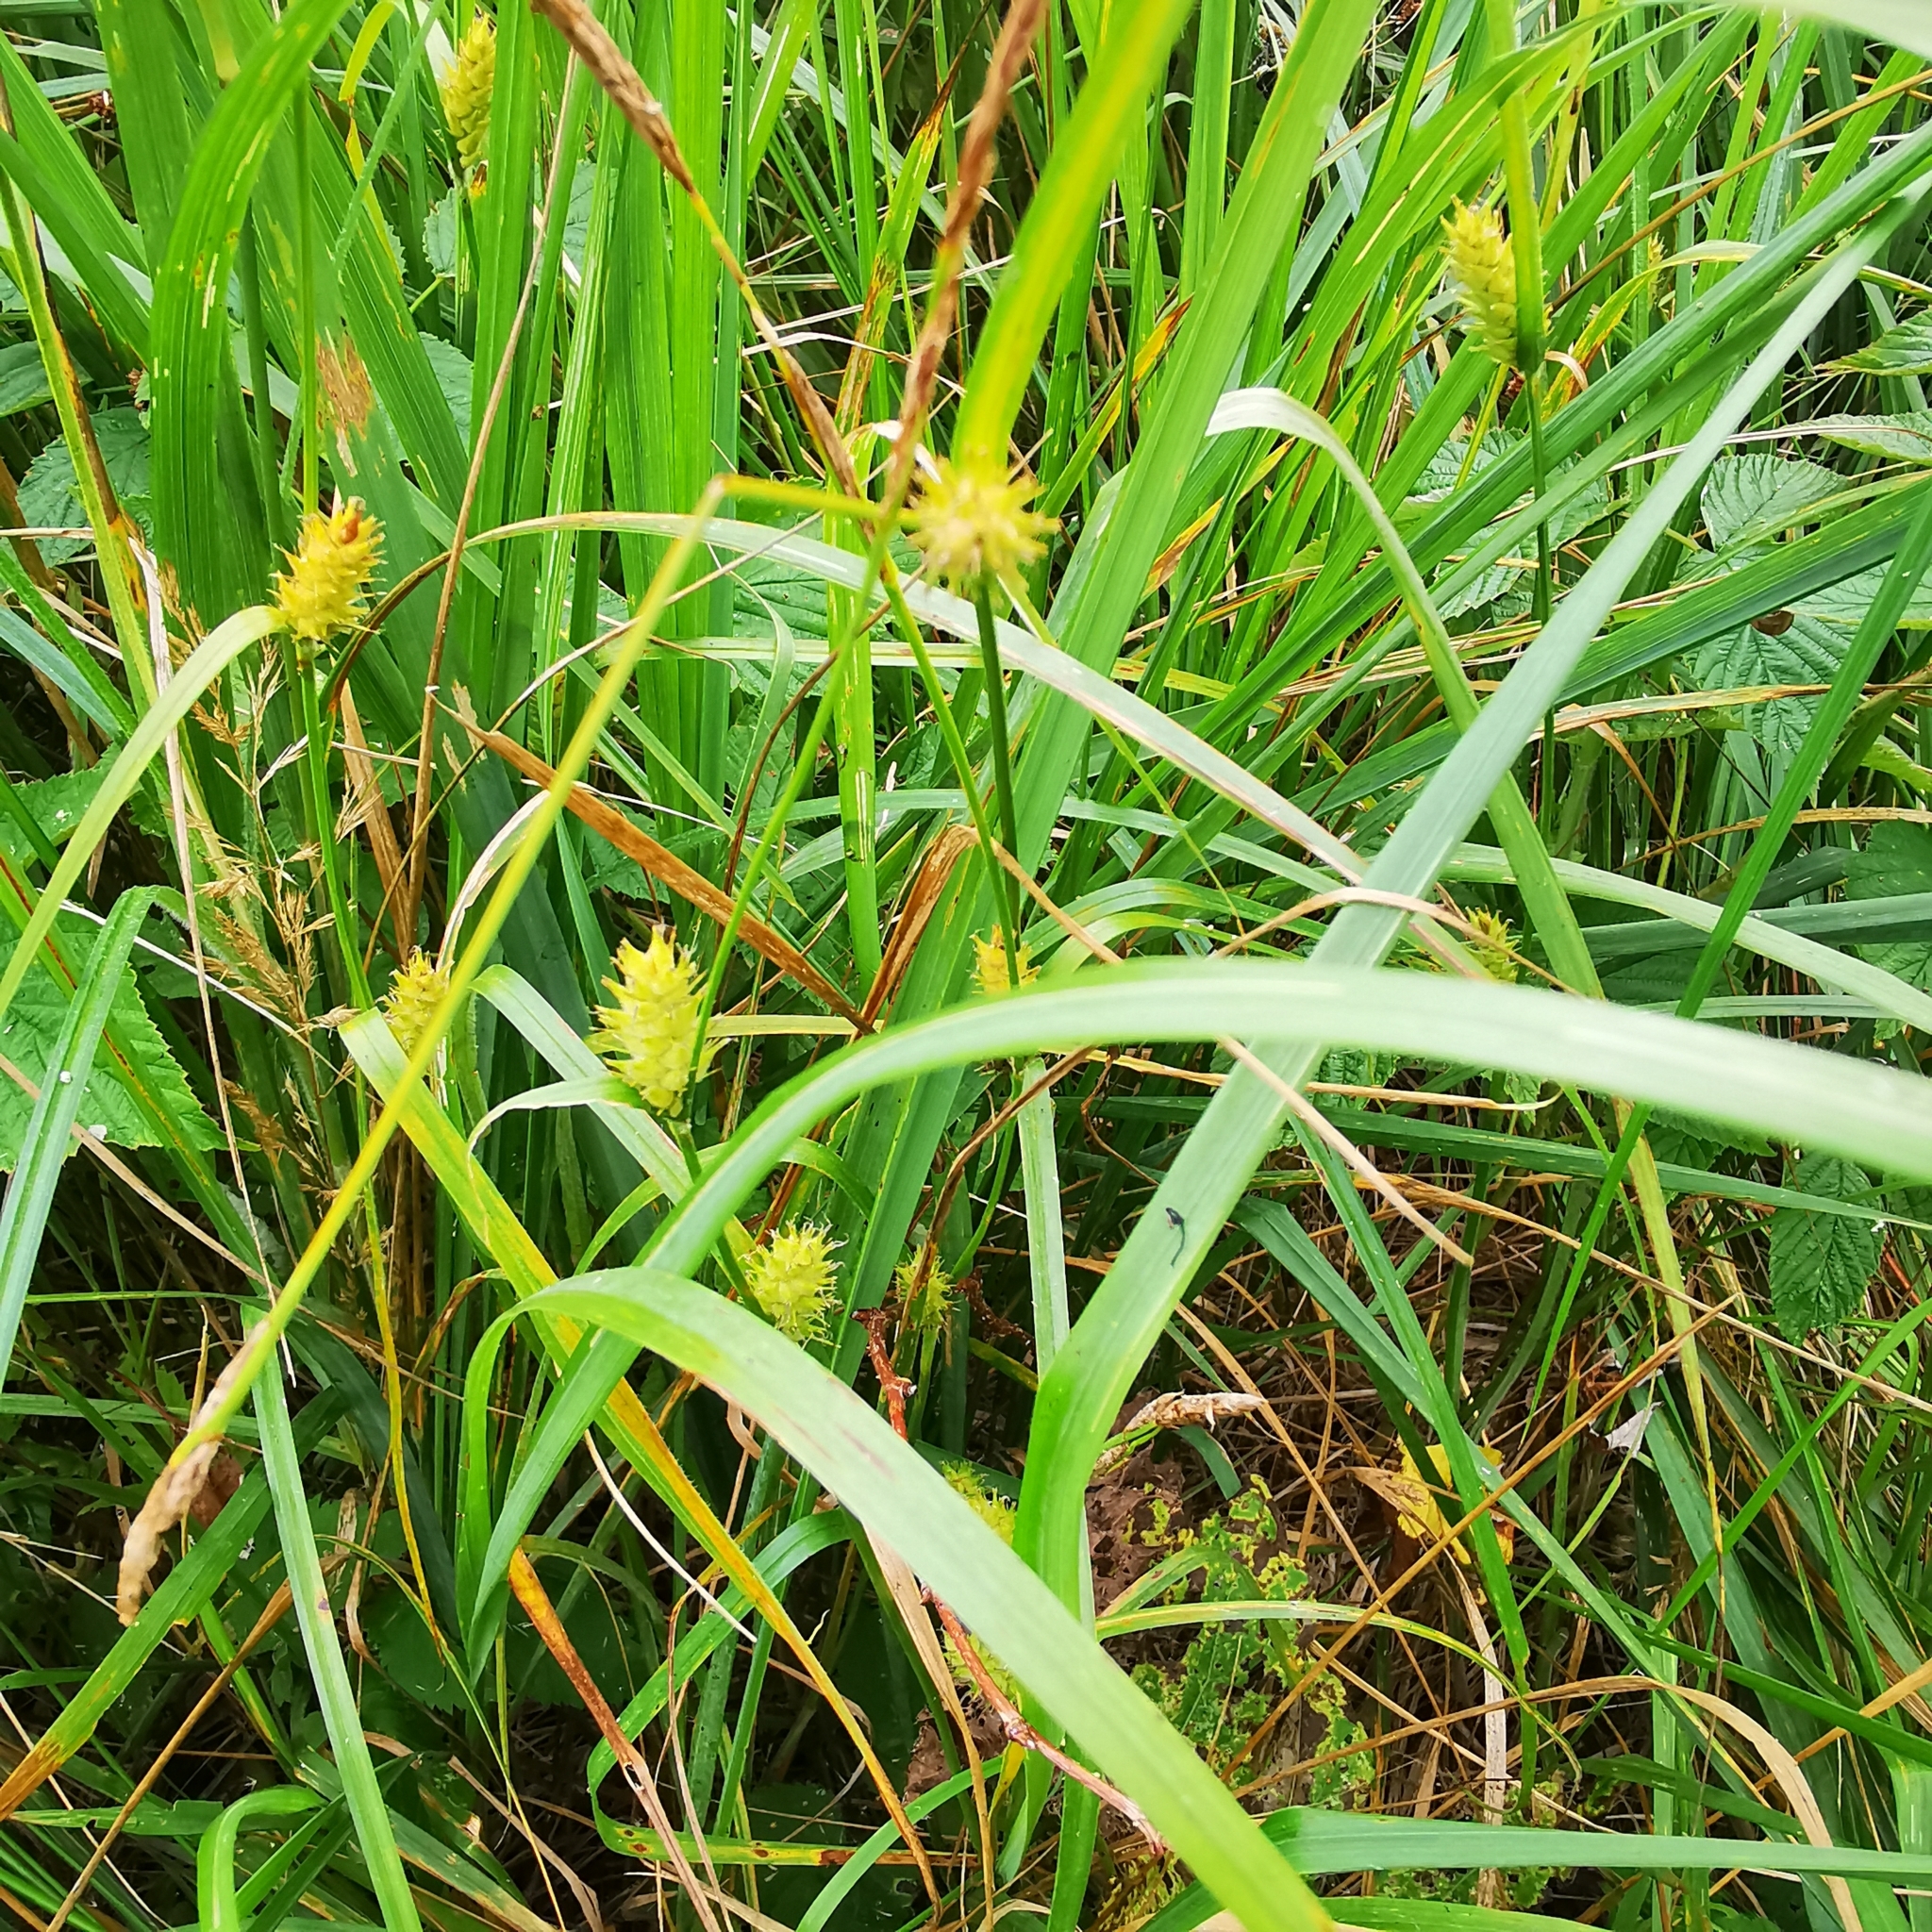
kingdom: Plantae
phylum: Tracheophyta
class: Liliopsida
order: Poales
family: Cyperaceae
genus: Carex
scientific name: Carex hirta
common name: Hairy sedge
